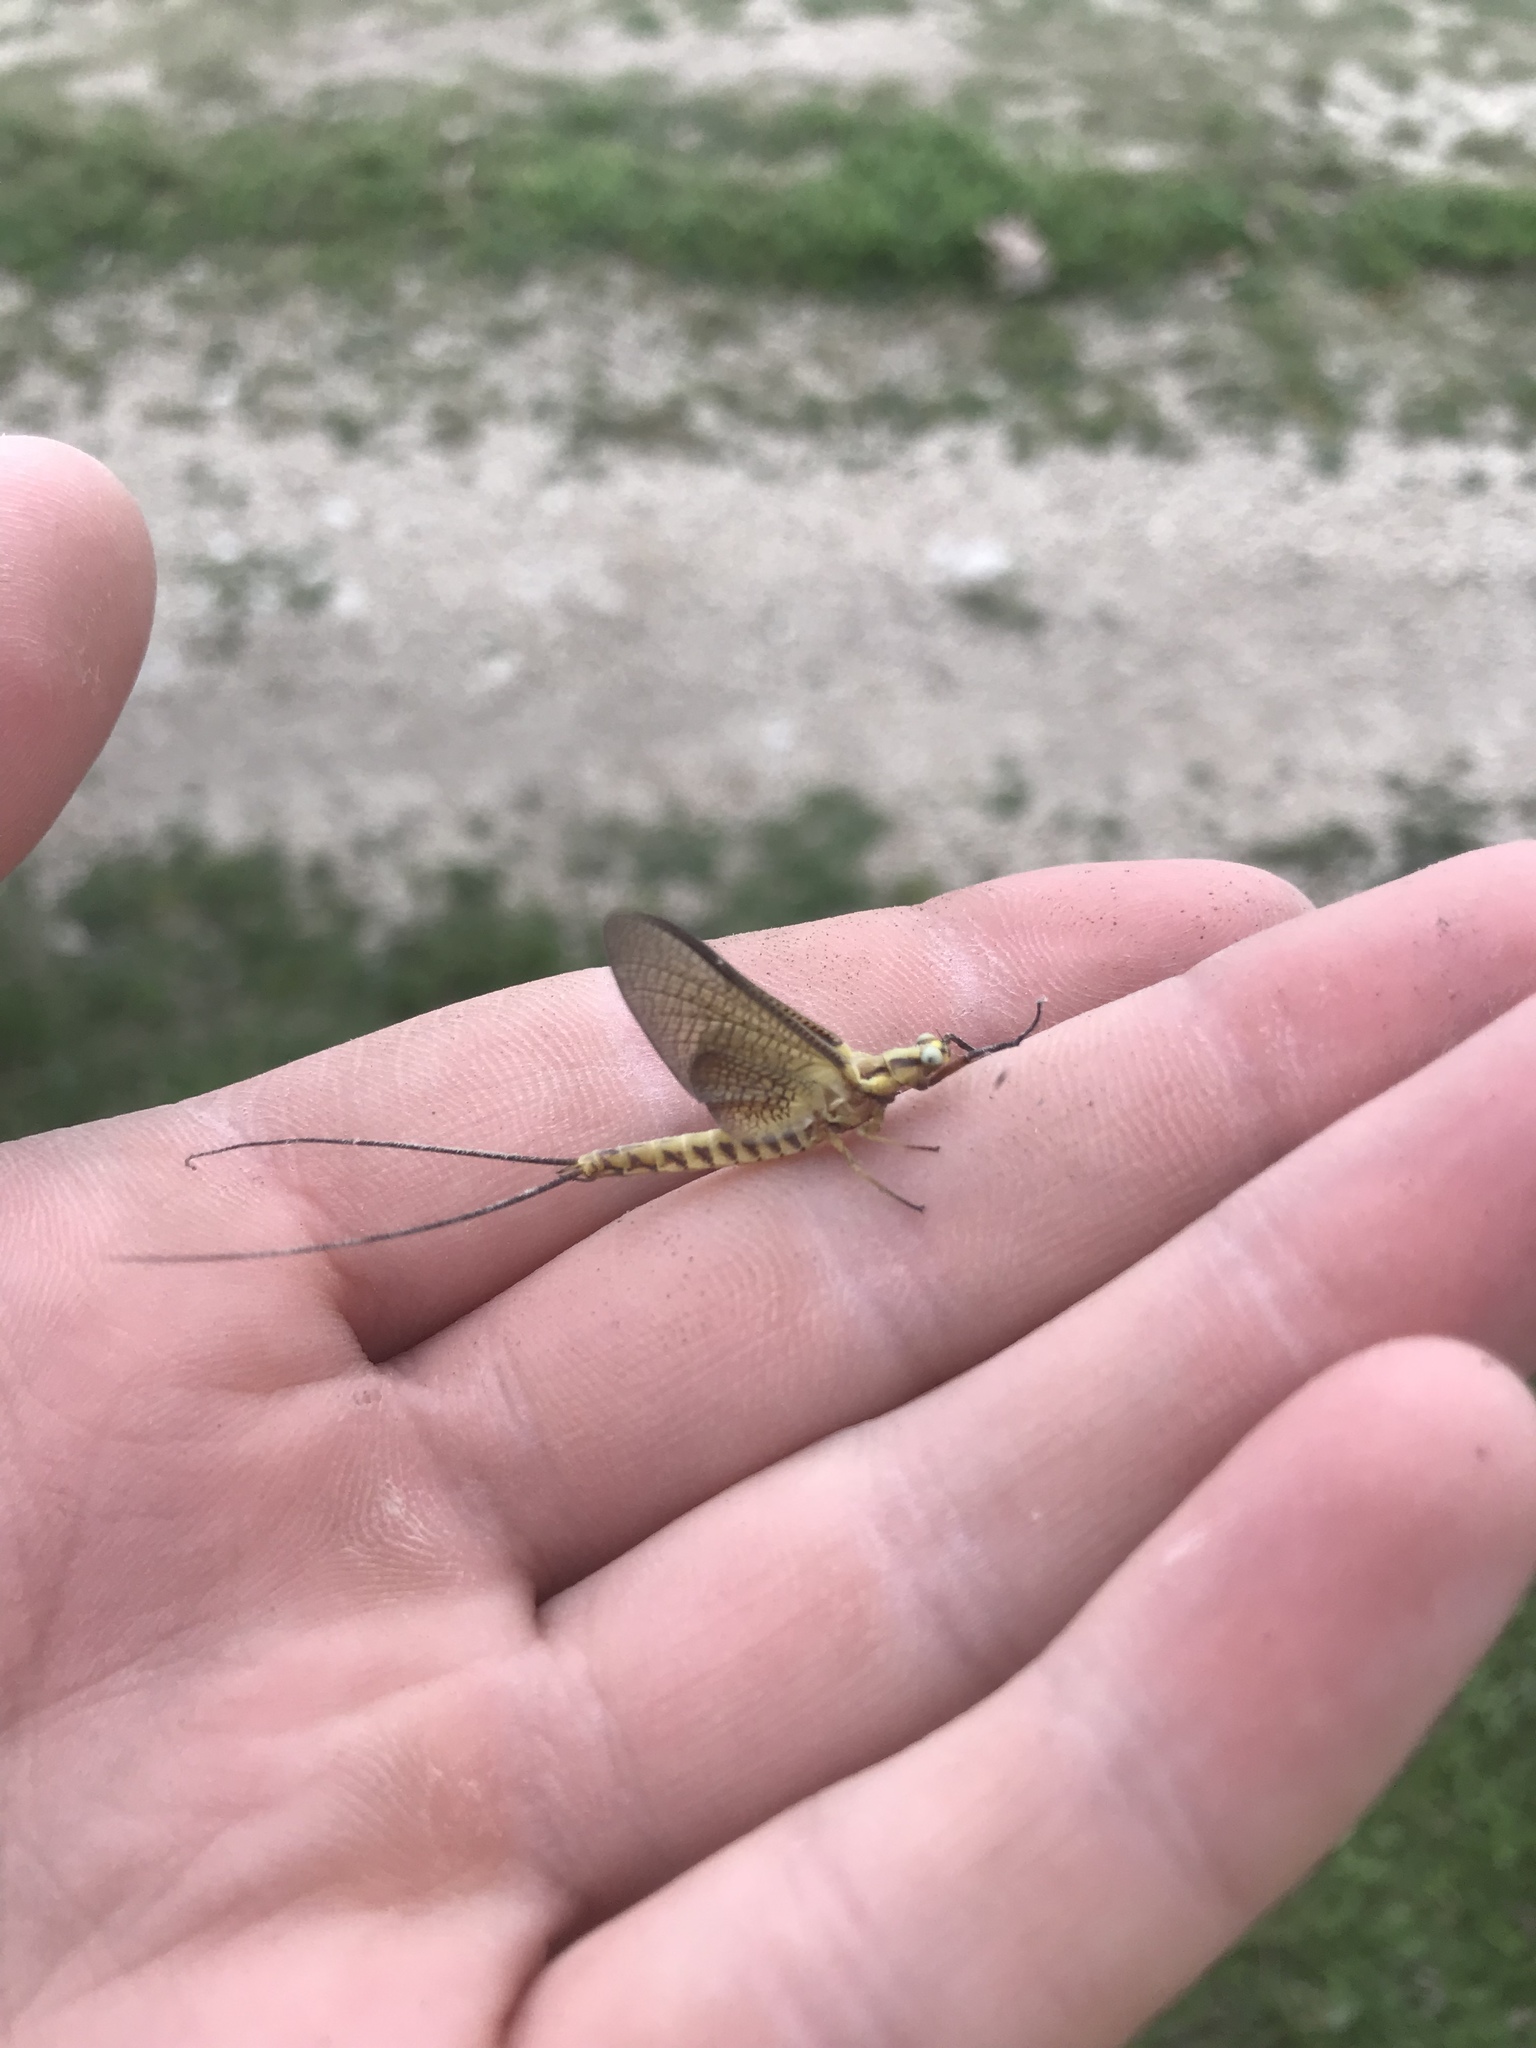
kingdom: Animalia
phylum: Arthropoda
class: Insecta
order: Ephemeroptera
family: Ephemeridae
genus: Hexagenia
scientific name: Hexagenia limbata
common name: Giant mayfly
